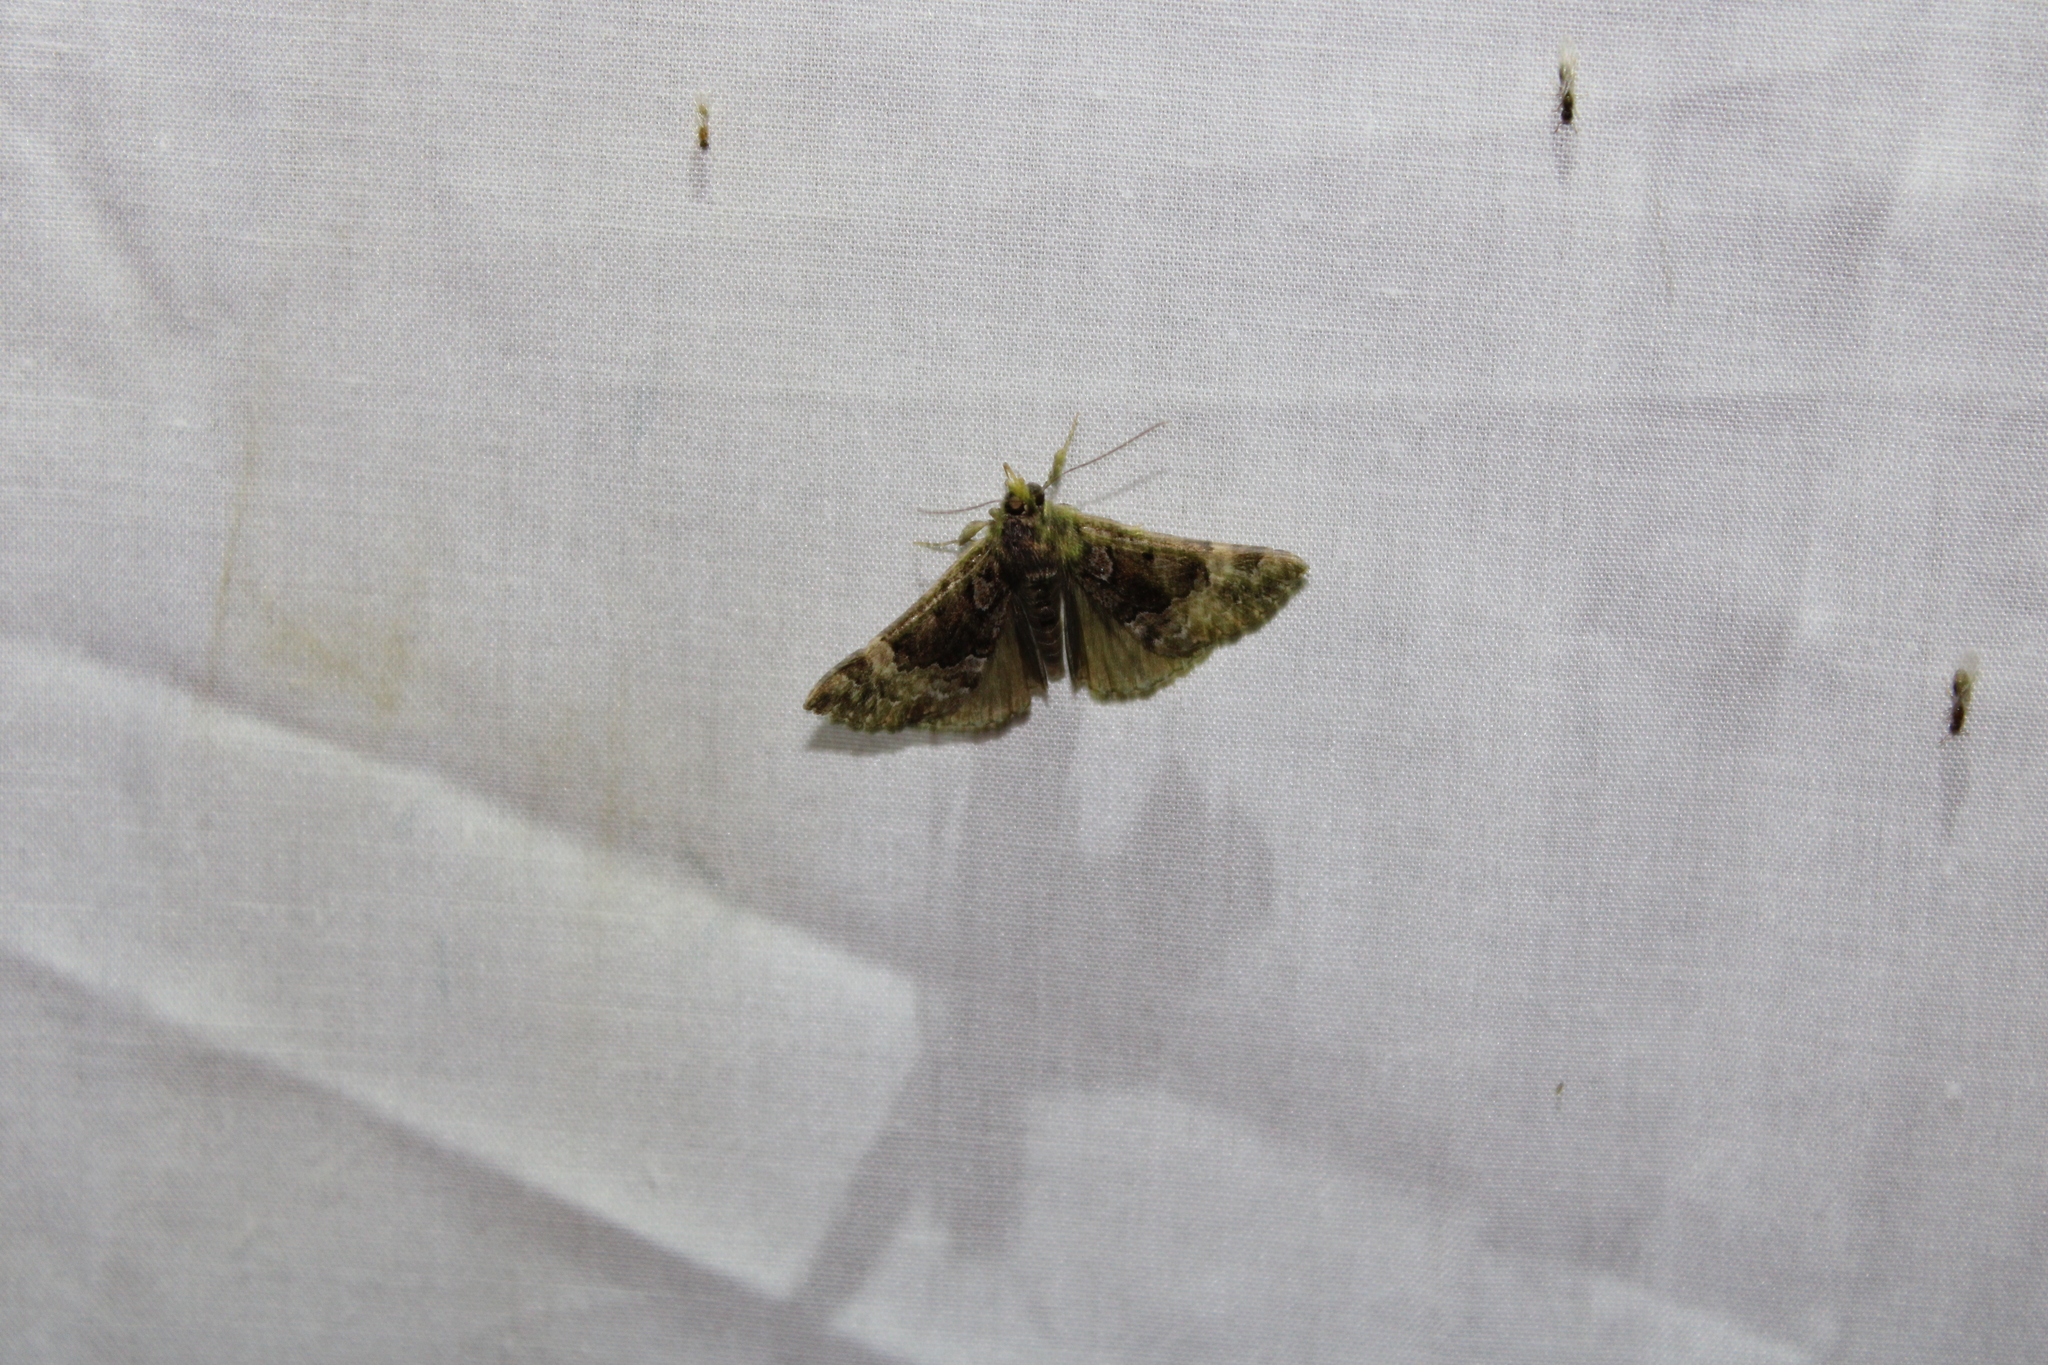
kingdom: Animalia
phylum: Arthropoda
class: Insecta
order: Lepidoptera
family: Erebidae
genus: Hypena
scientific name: Hypena palparia
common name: Mottled bomolocha moth
